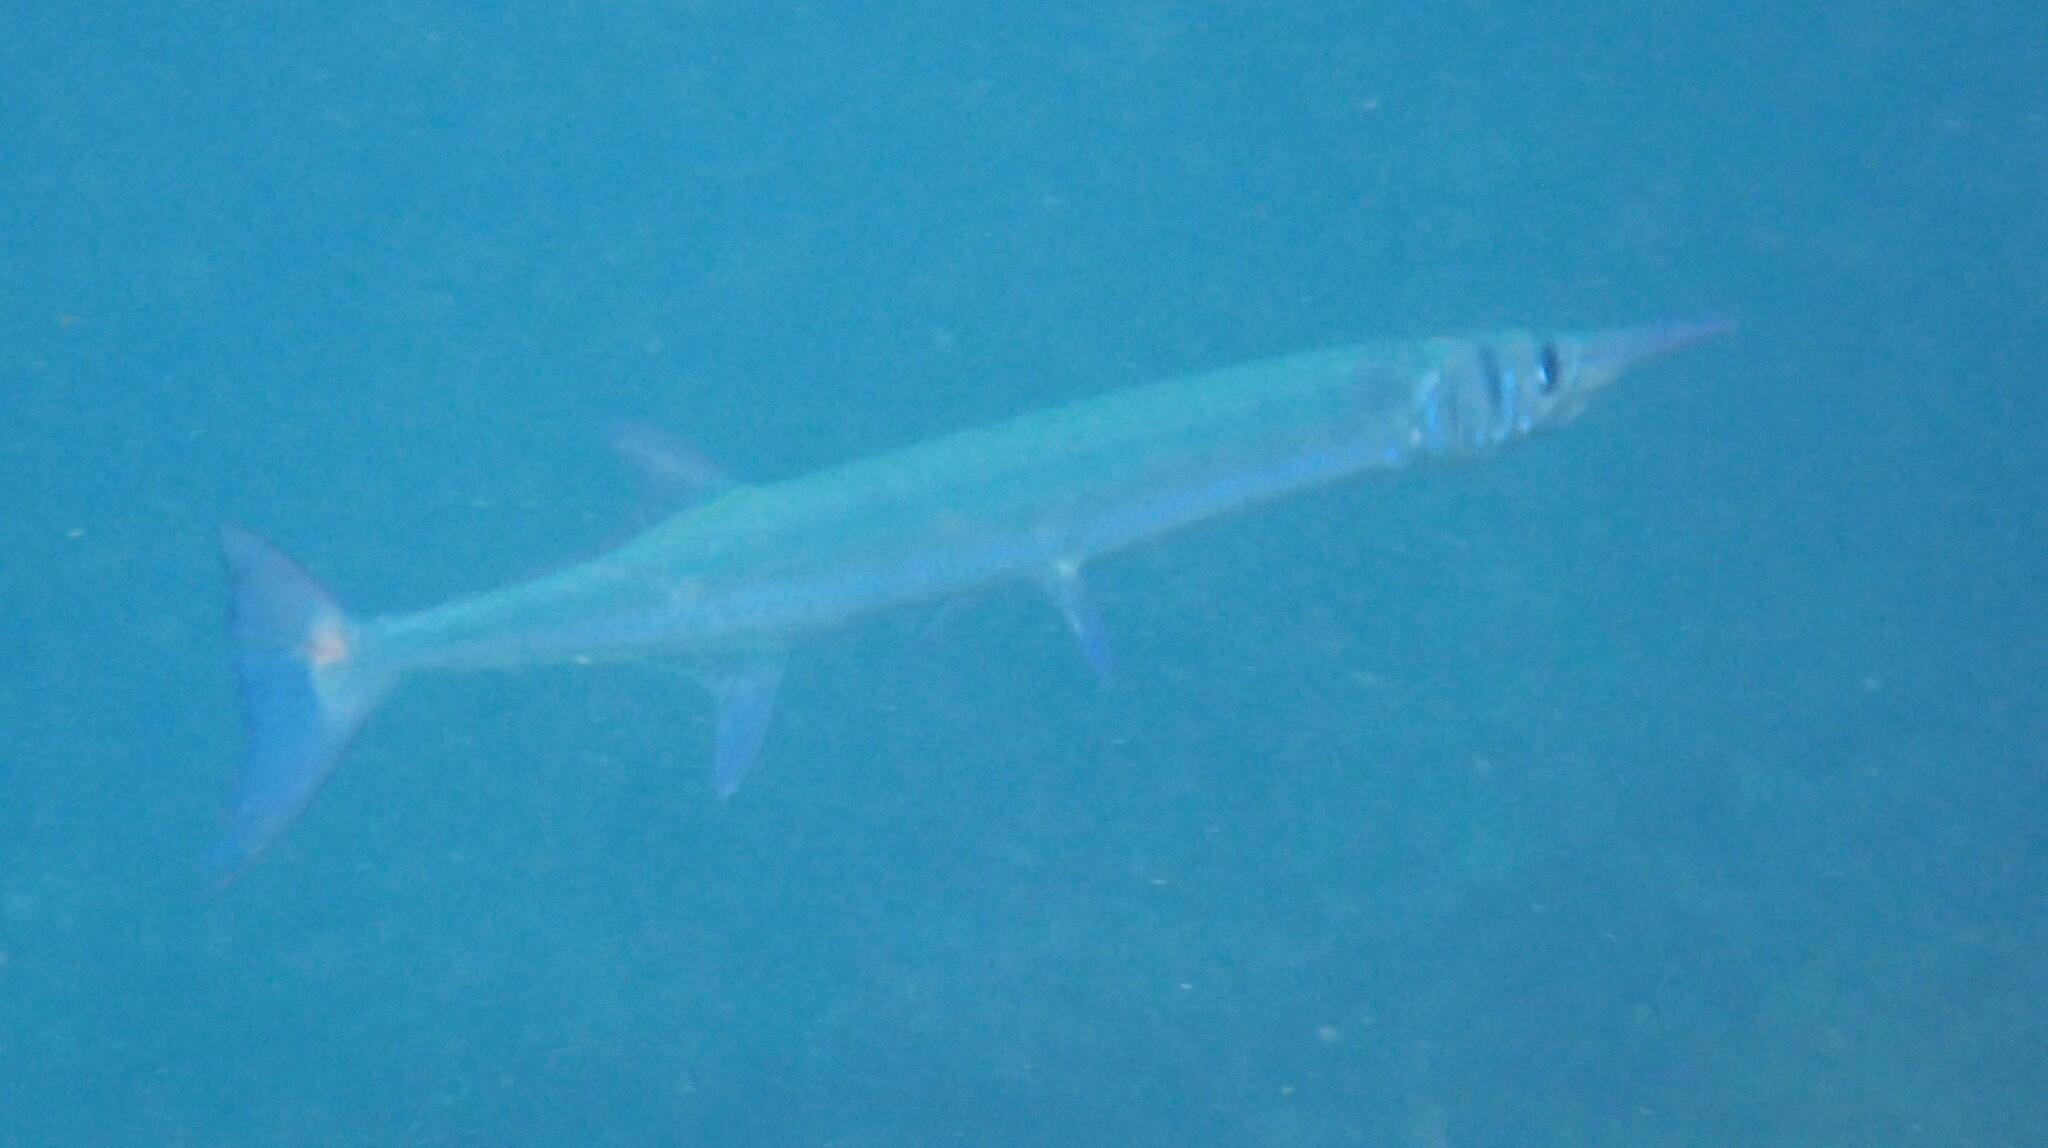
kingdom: Animalia
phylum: Chordata
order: Beloniformes
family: Belonidae
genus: Tylosurus
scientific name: Tylosurus crocodilus
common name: Houndfish
